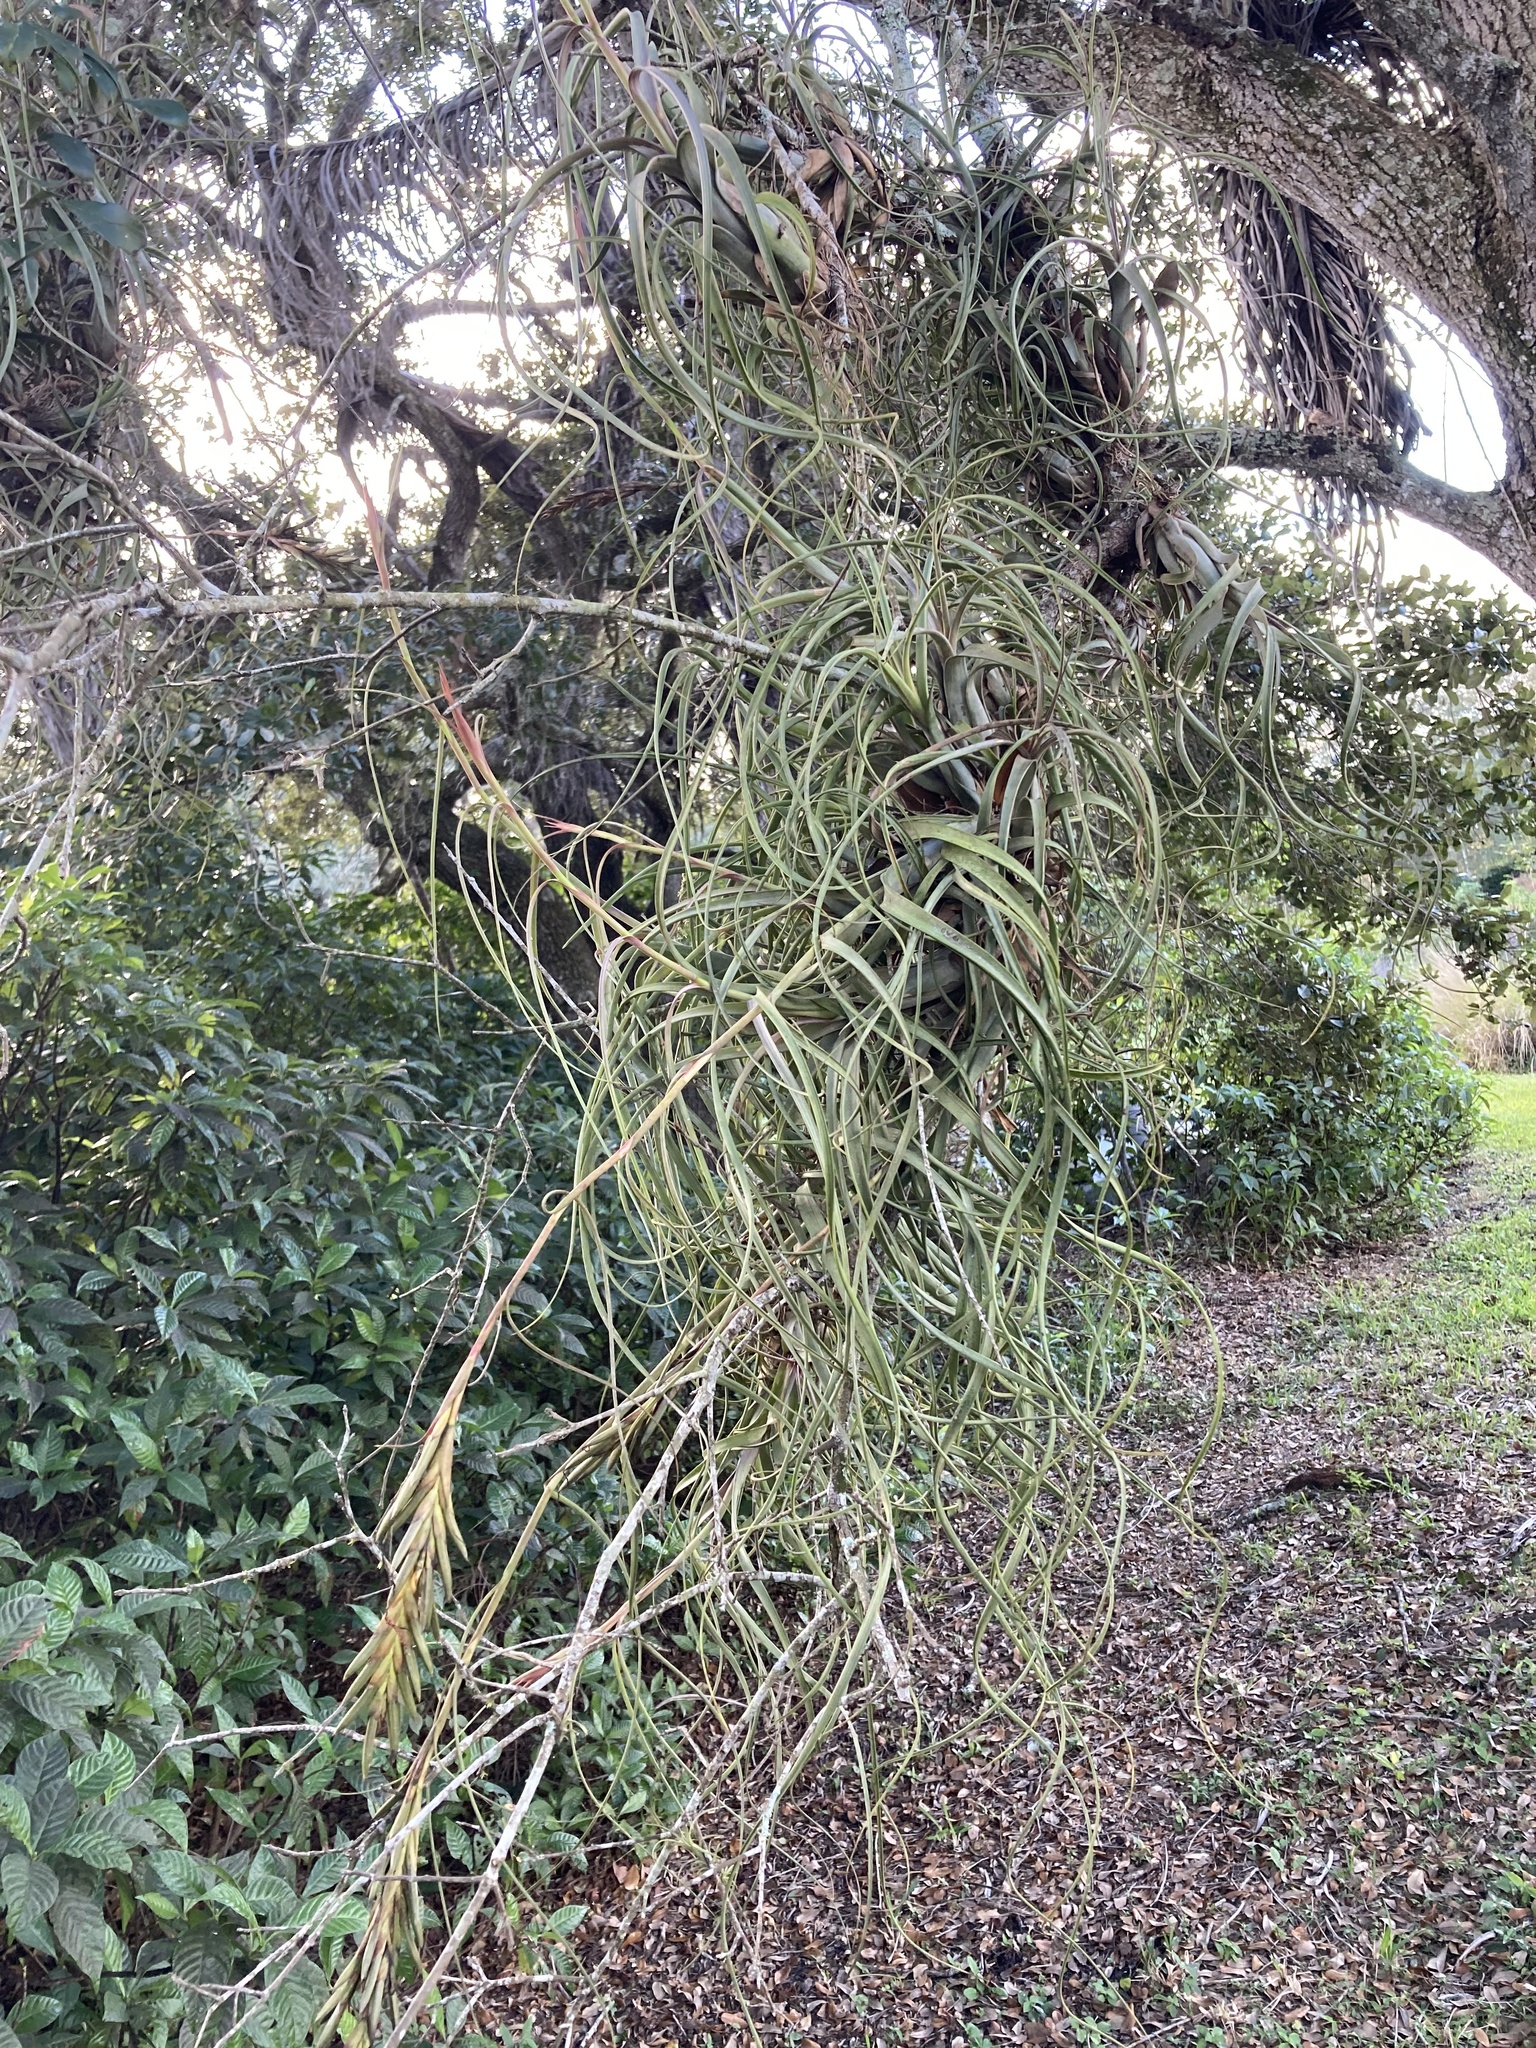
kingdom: Plantae
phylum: Tracheophyta
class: Liliopsida
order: Poales
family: Bromeliaceae
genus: Tillandsia
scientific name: Tillandsia balbisiana
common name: Northern needleleaf
